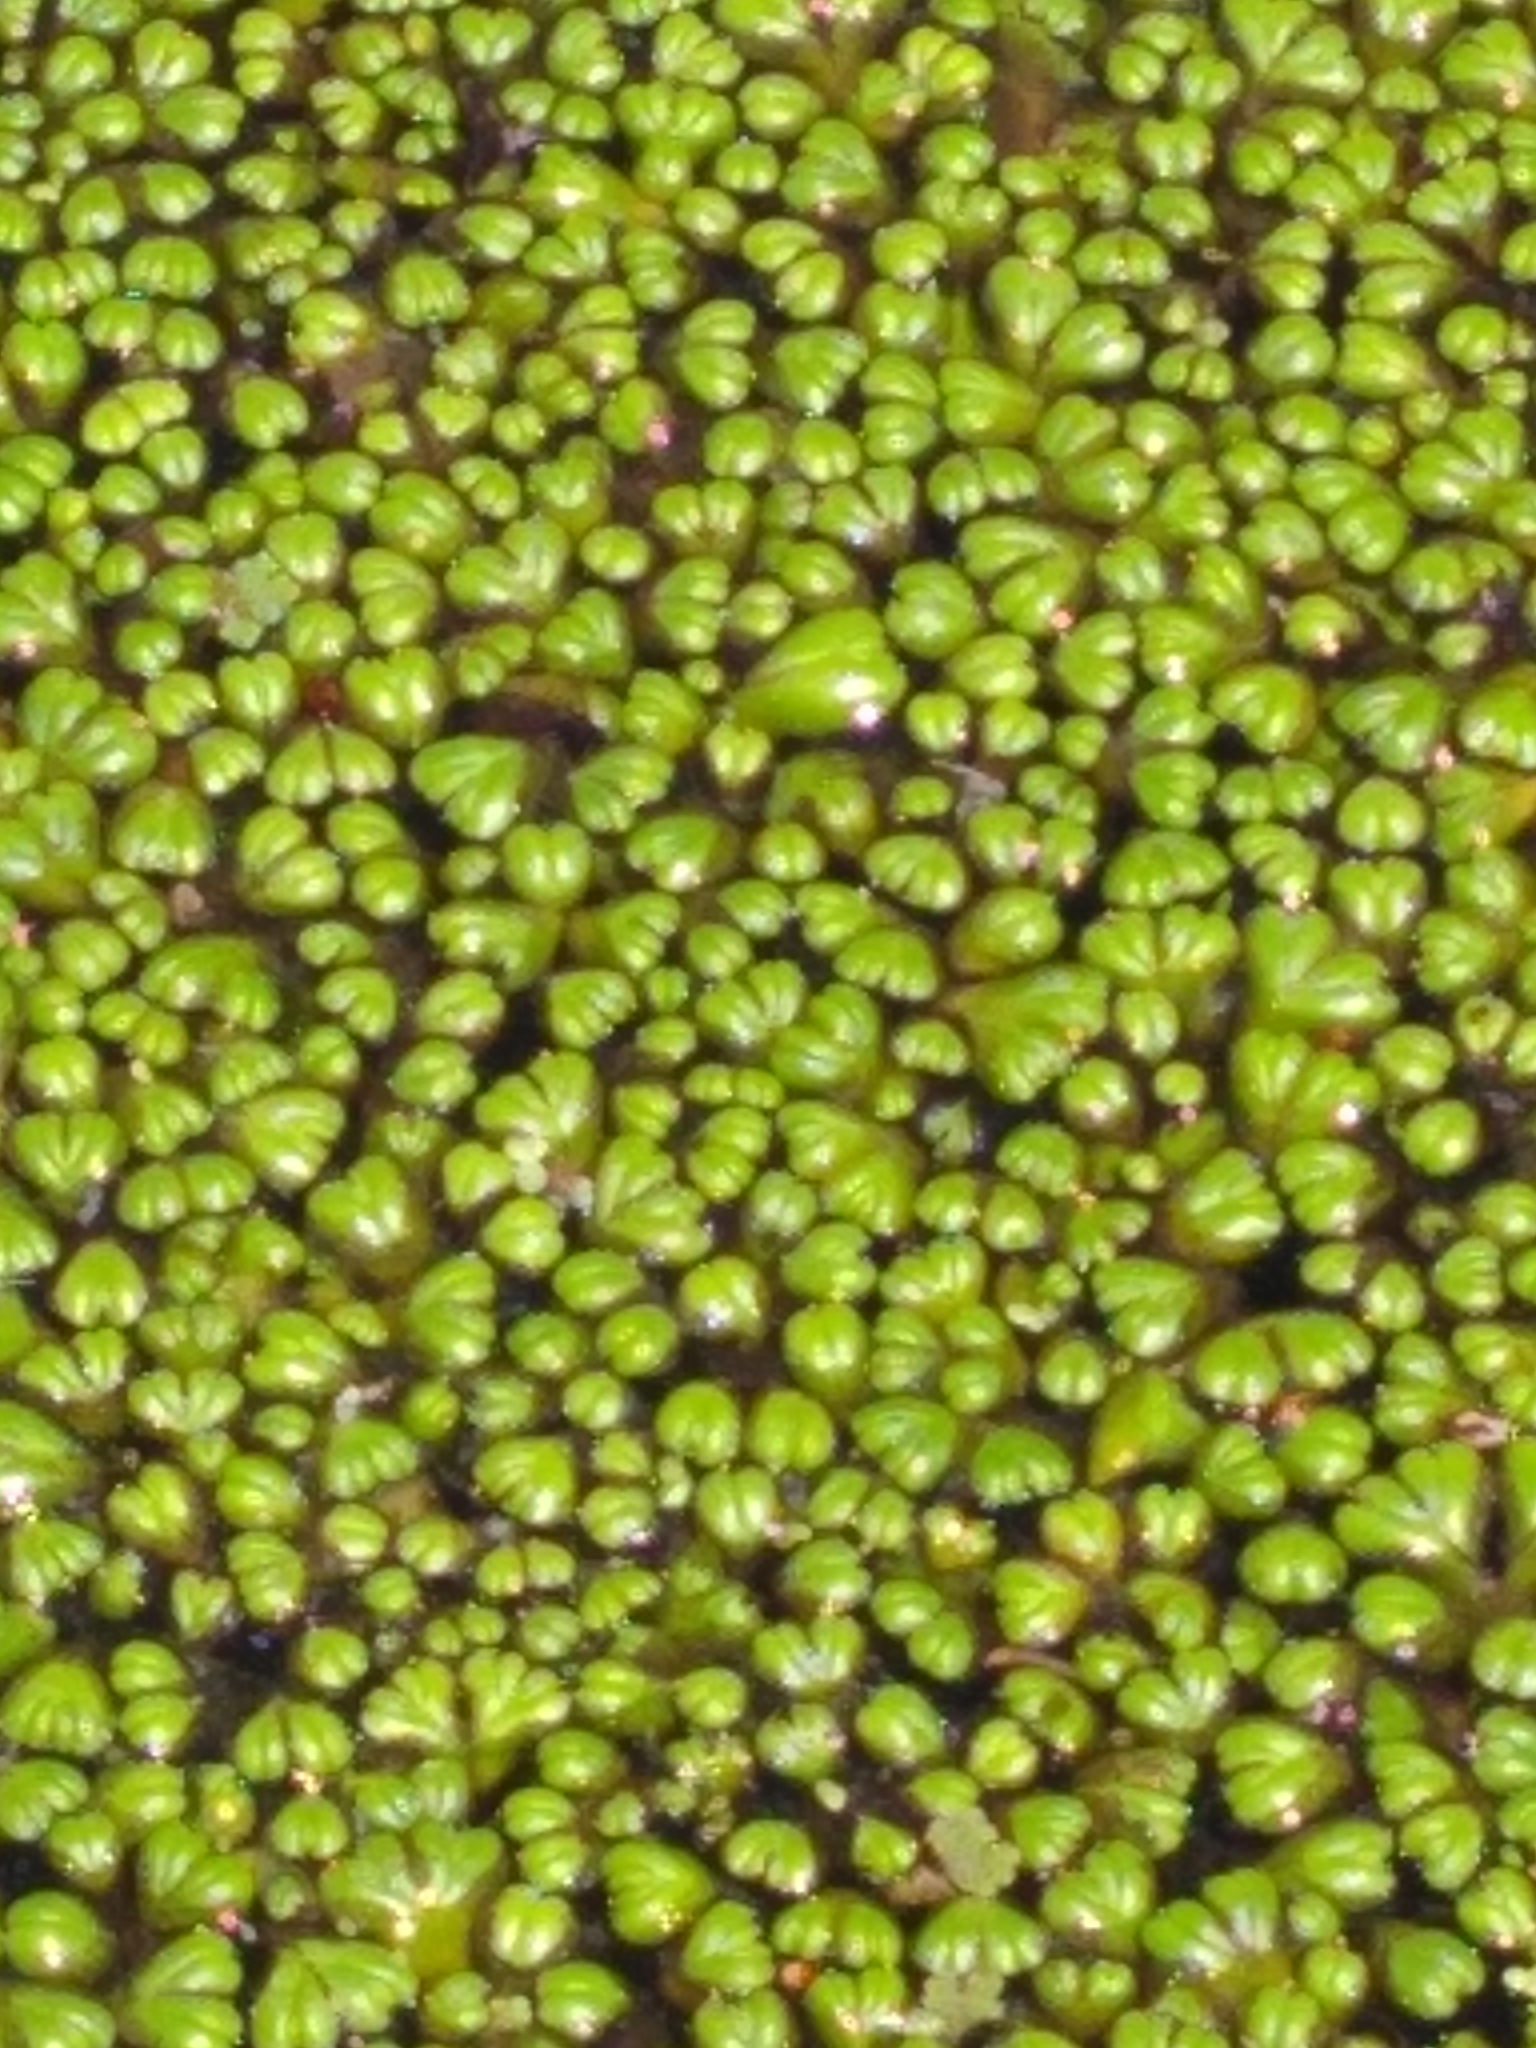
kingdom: Plantae
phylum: Marchantiophyta
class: Marchantiopsida
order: Marchantiales
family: Ricciaceae
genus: Ricciocarpos
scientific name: Ricciocarpos natans
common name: Purple-fringed liverwort
